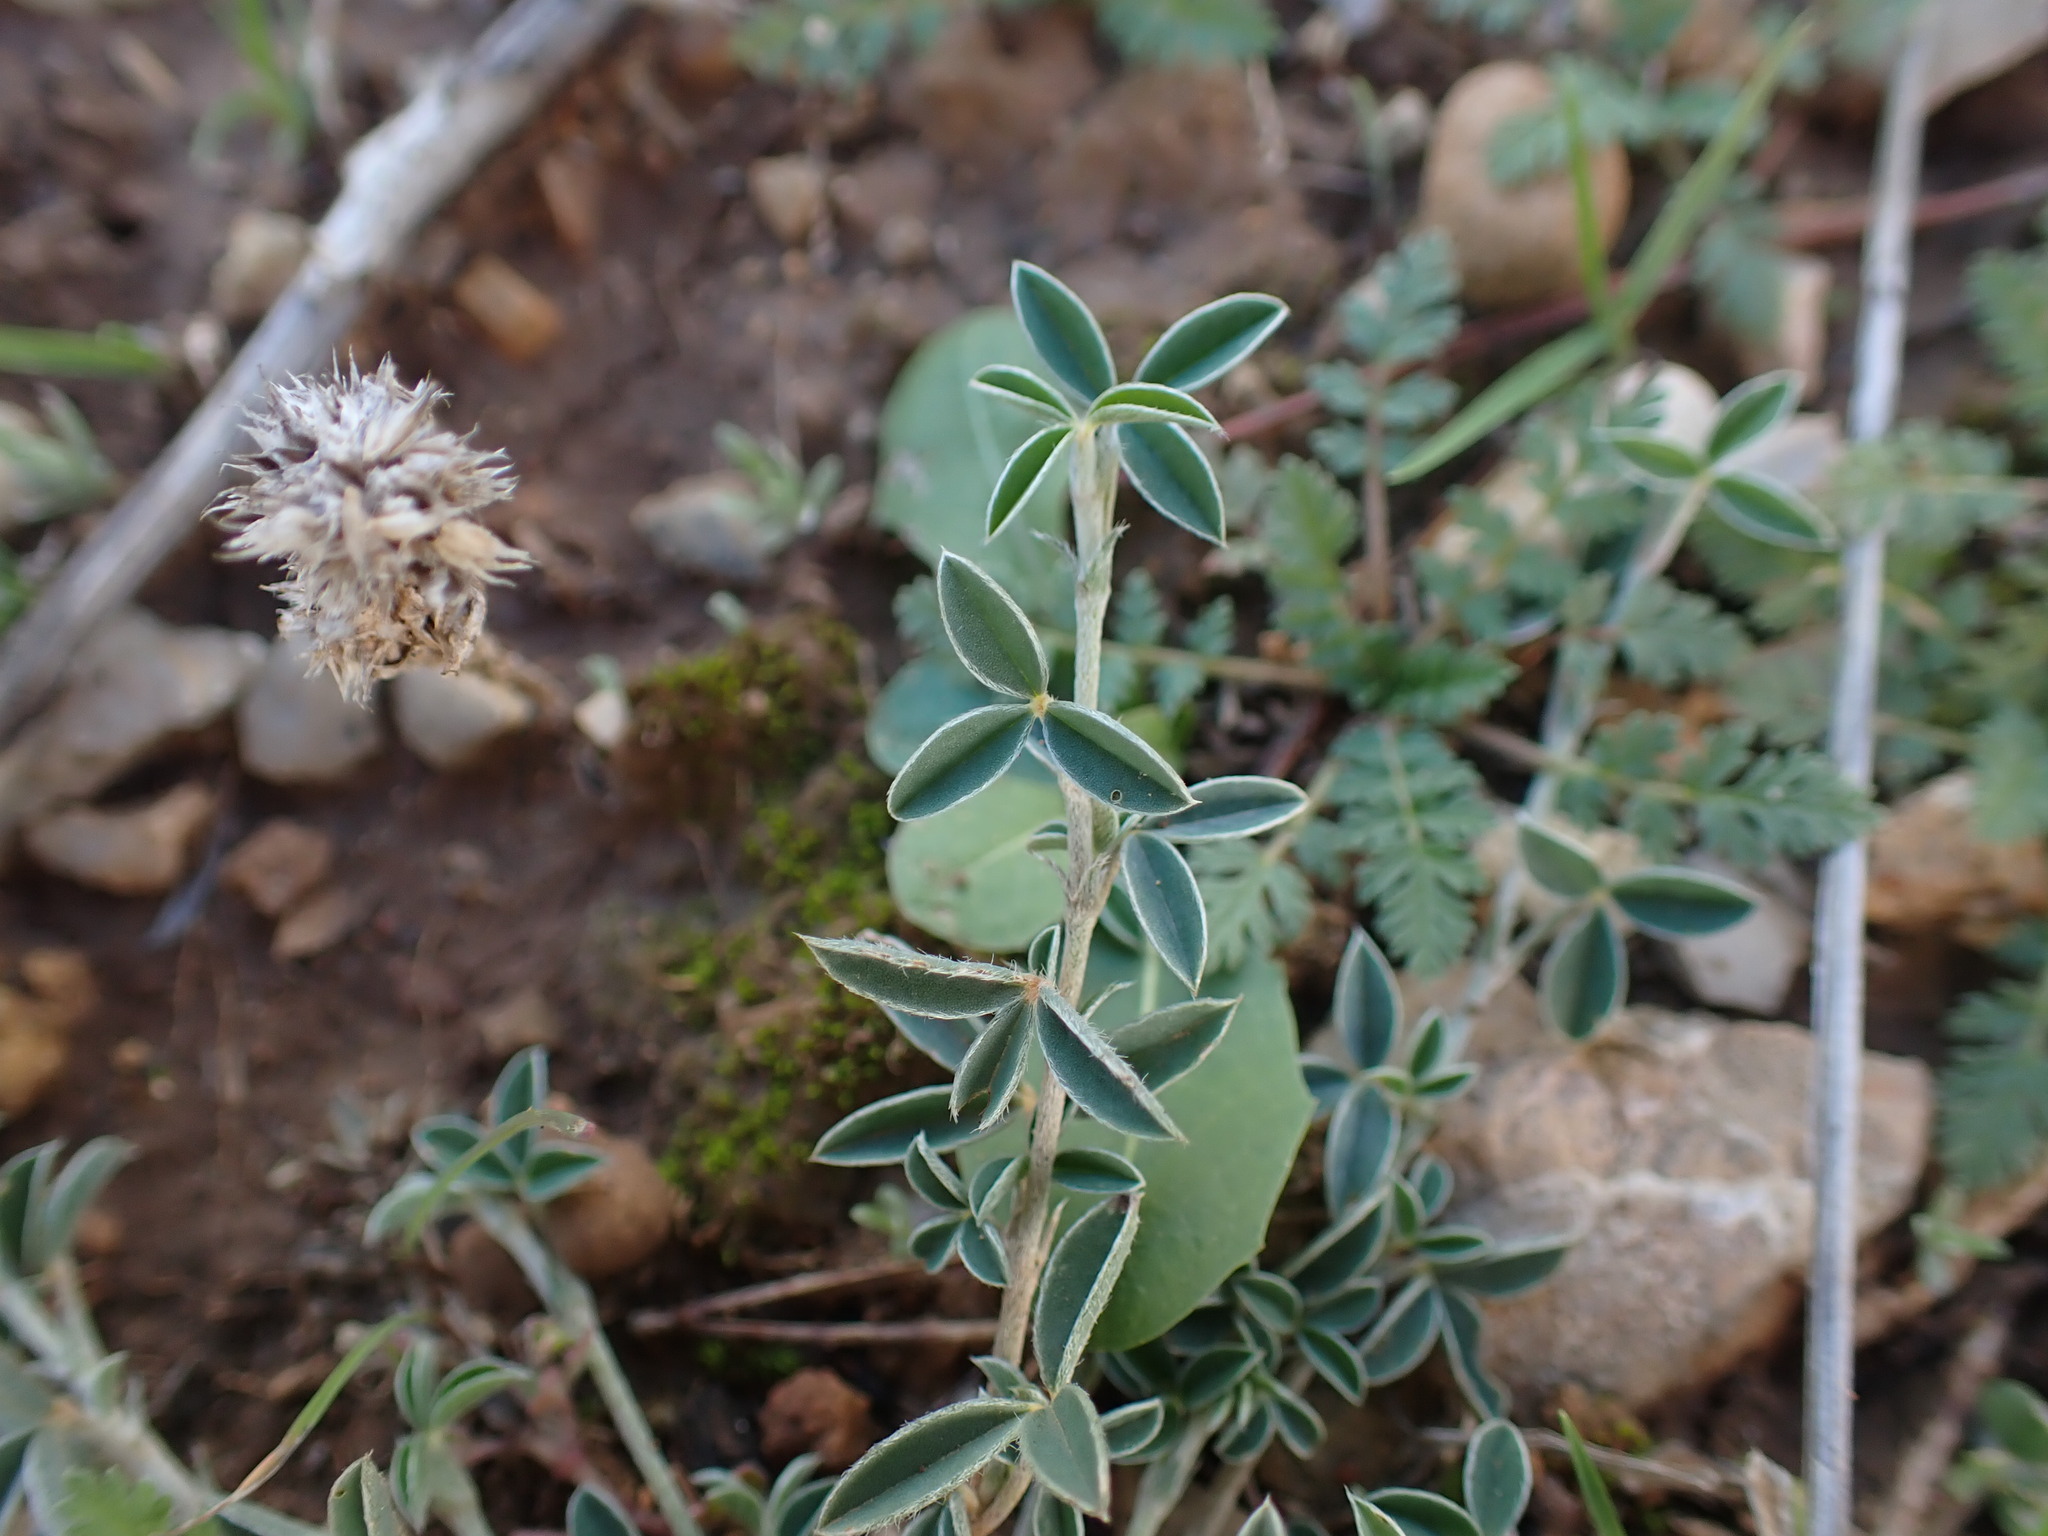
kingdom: Plantae
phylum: Tracheophyta
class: Magnoliopsida
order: Fabales
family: Fabaceae
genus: Argyrolobium
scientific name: Argyrolobium zanonii
